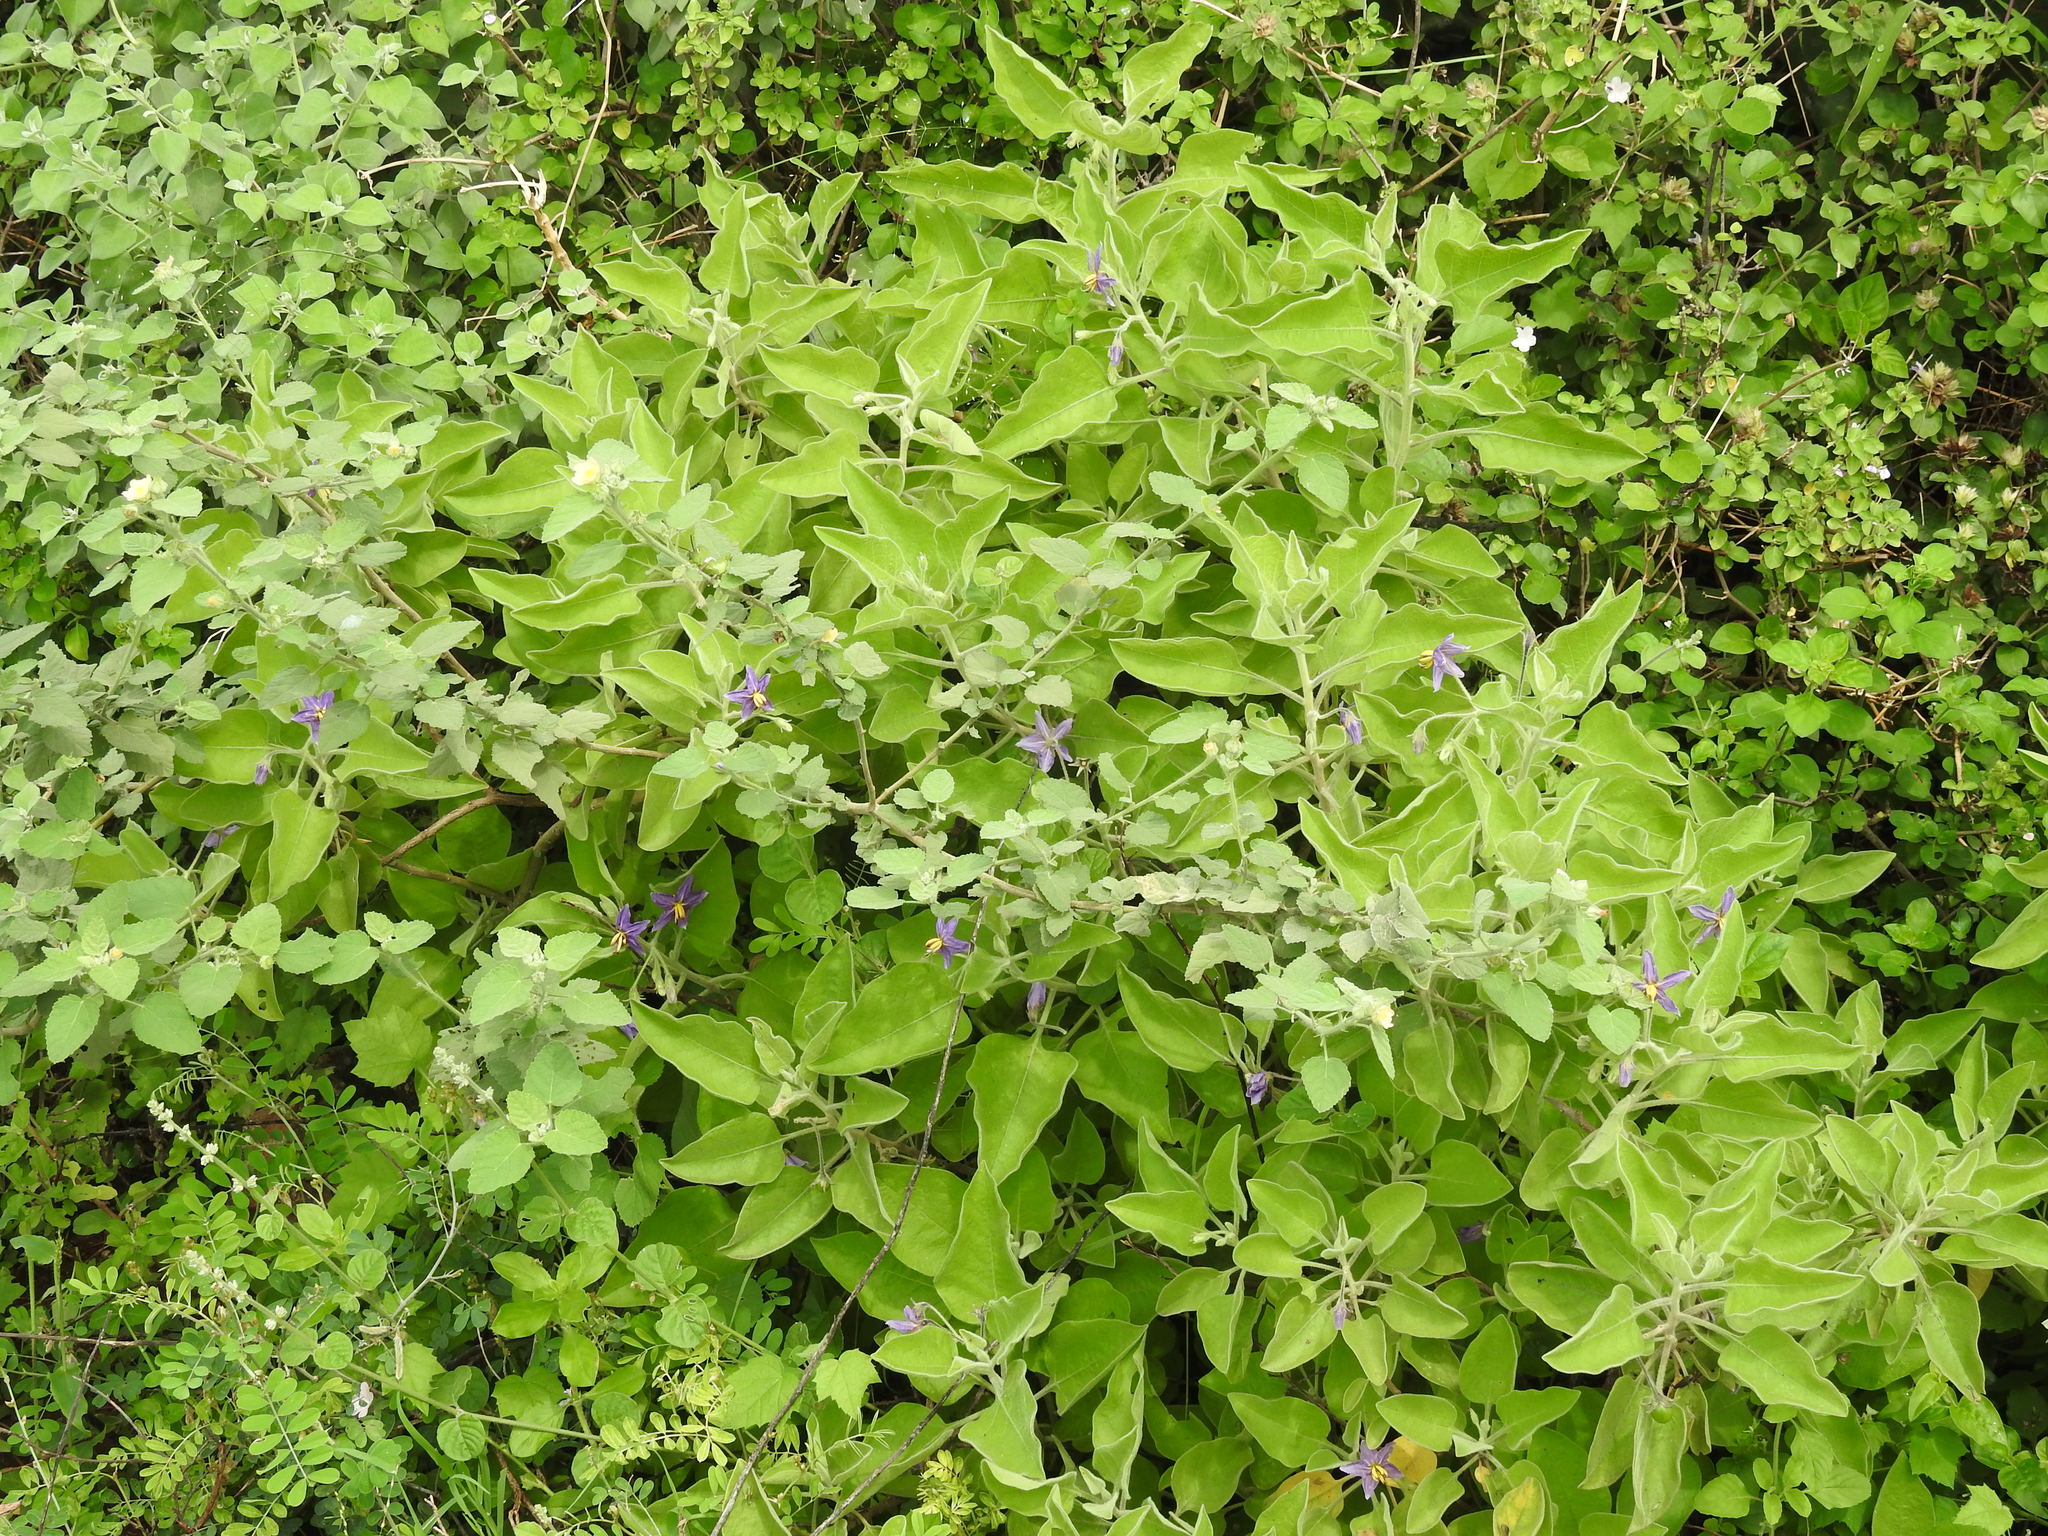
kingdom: Plantae
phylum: Tracheophyta
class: Magnoliopsida
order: Solanales
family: Solanaceae
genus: Solanum
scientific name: Solanum pubescens
